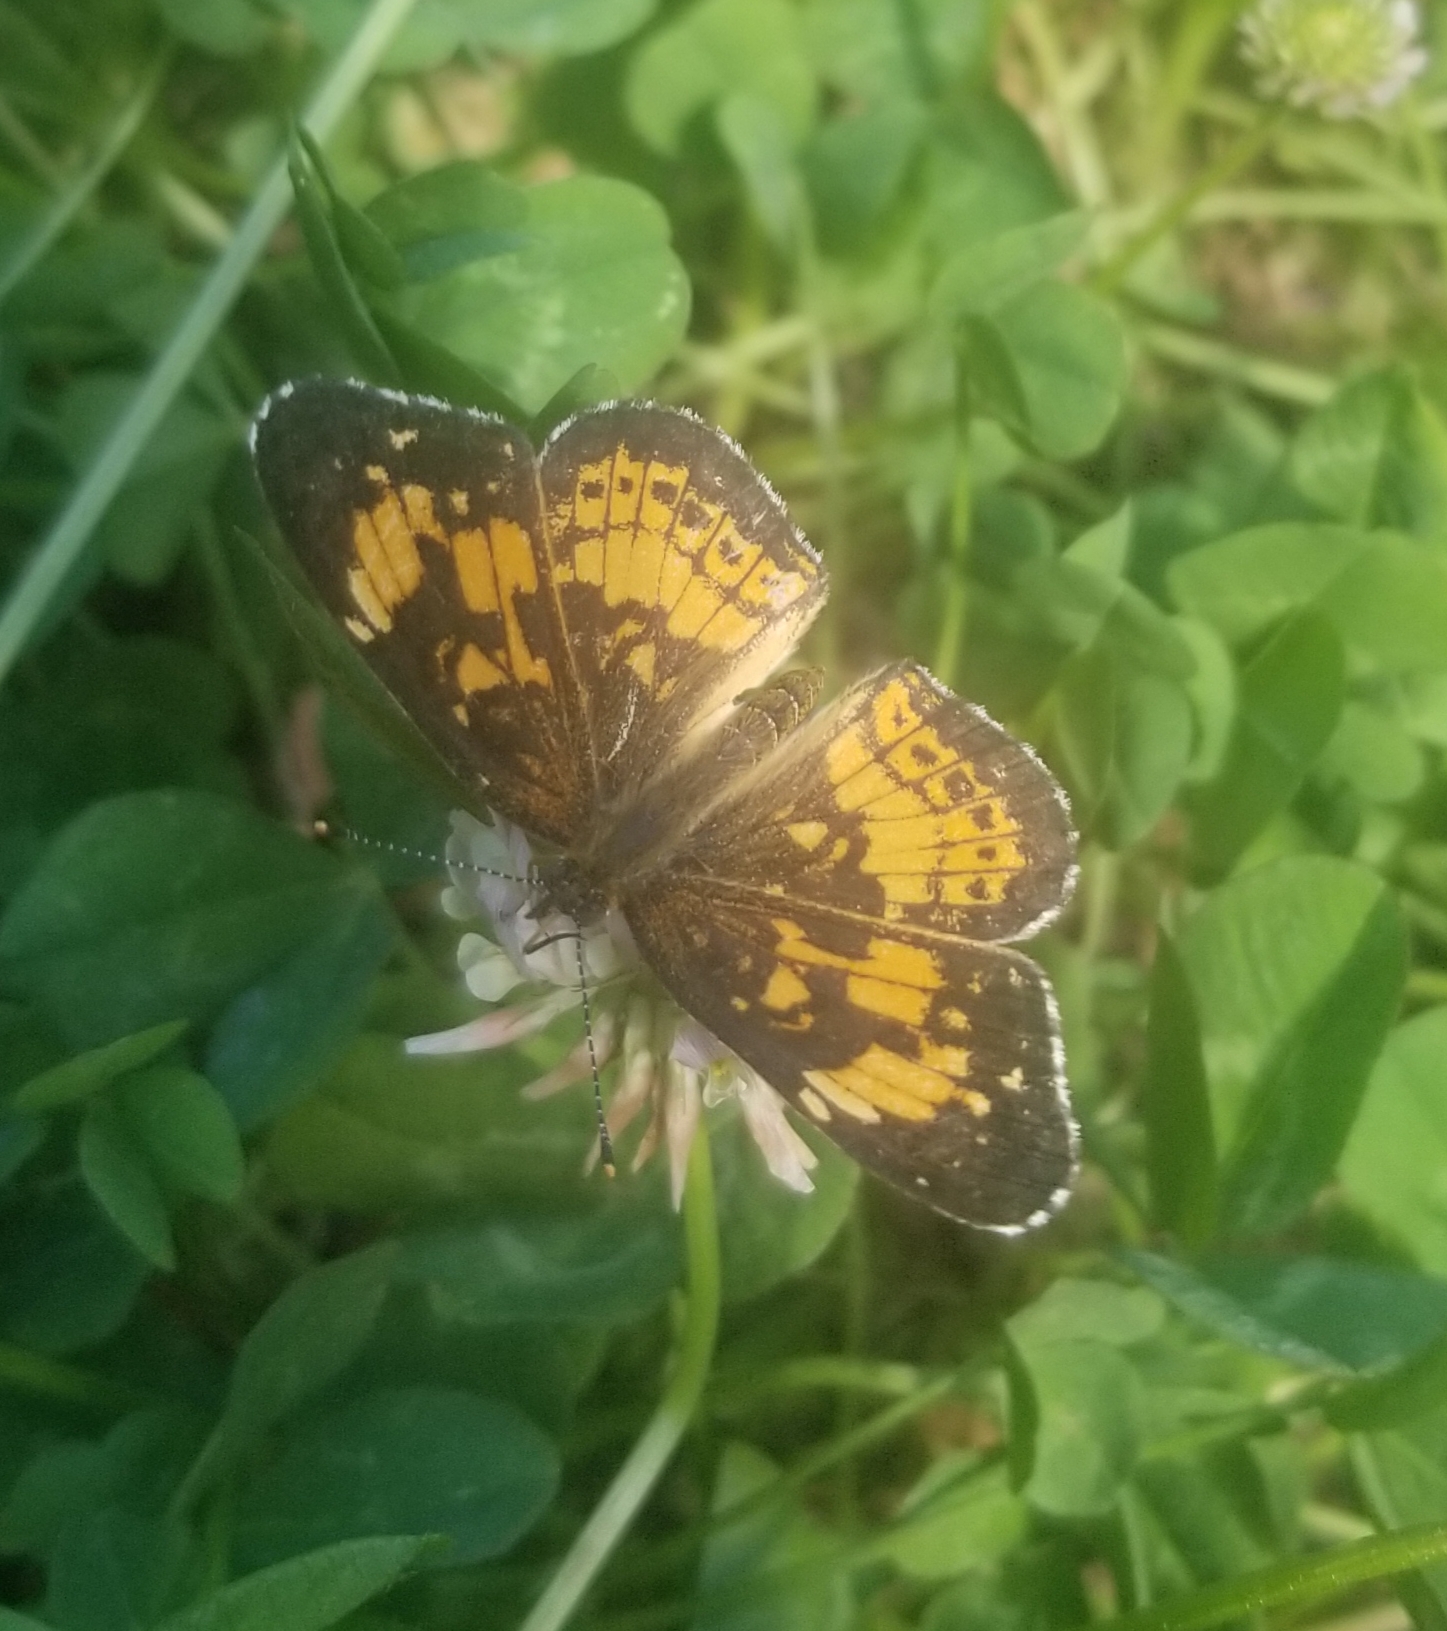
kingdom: Animalia
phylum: Arthropoda
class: Insecta
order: Lepidoptera
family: Nymphalidae
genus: Chlosyne
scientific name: Chlosyne nycteis
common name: Silvery checkerspot
